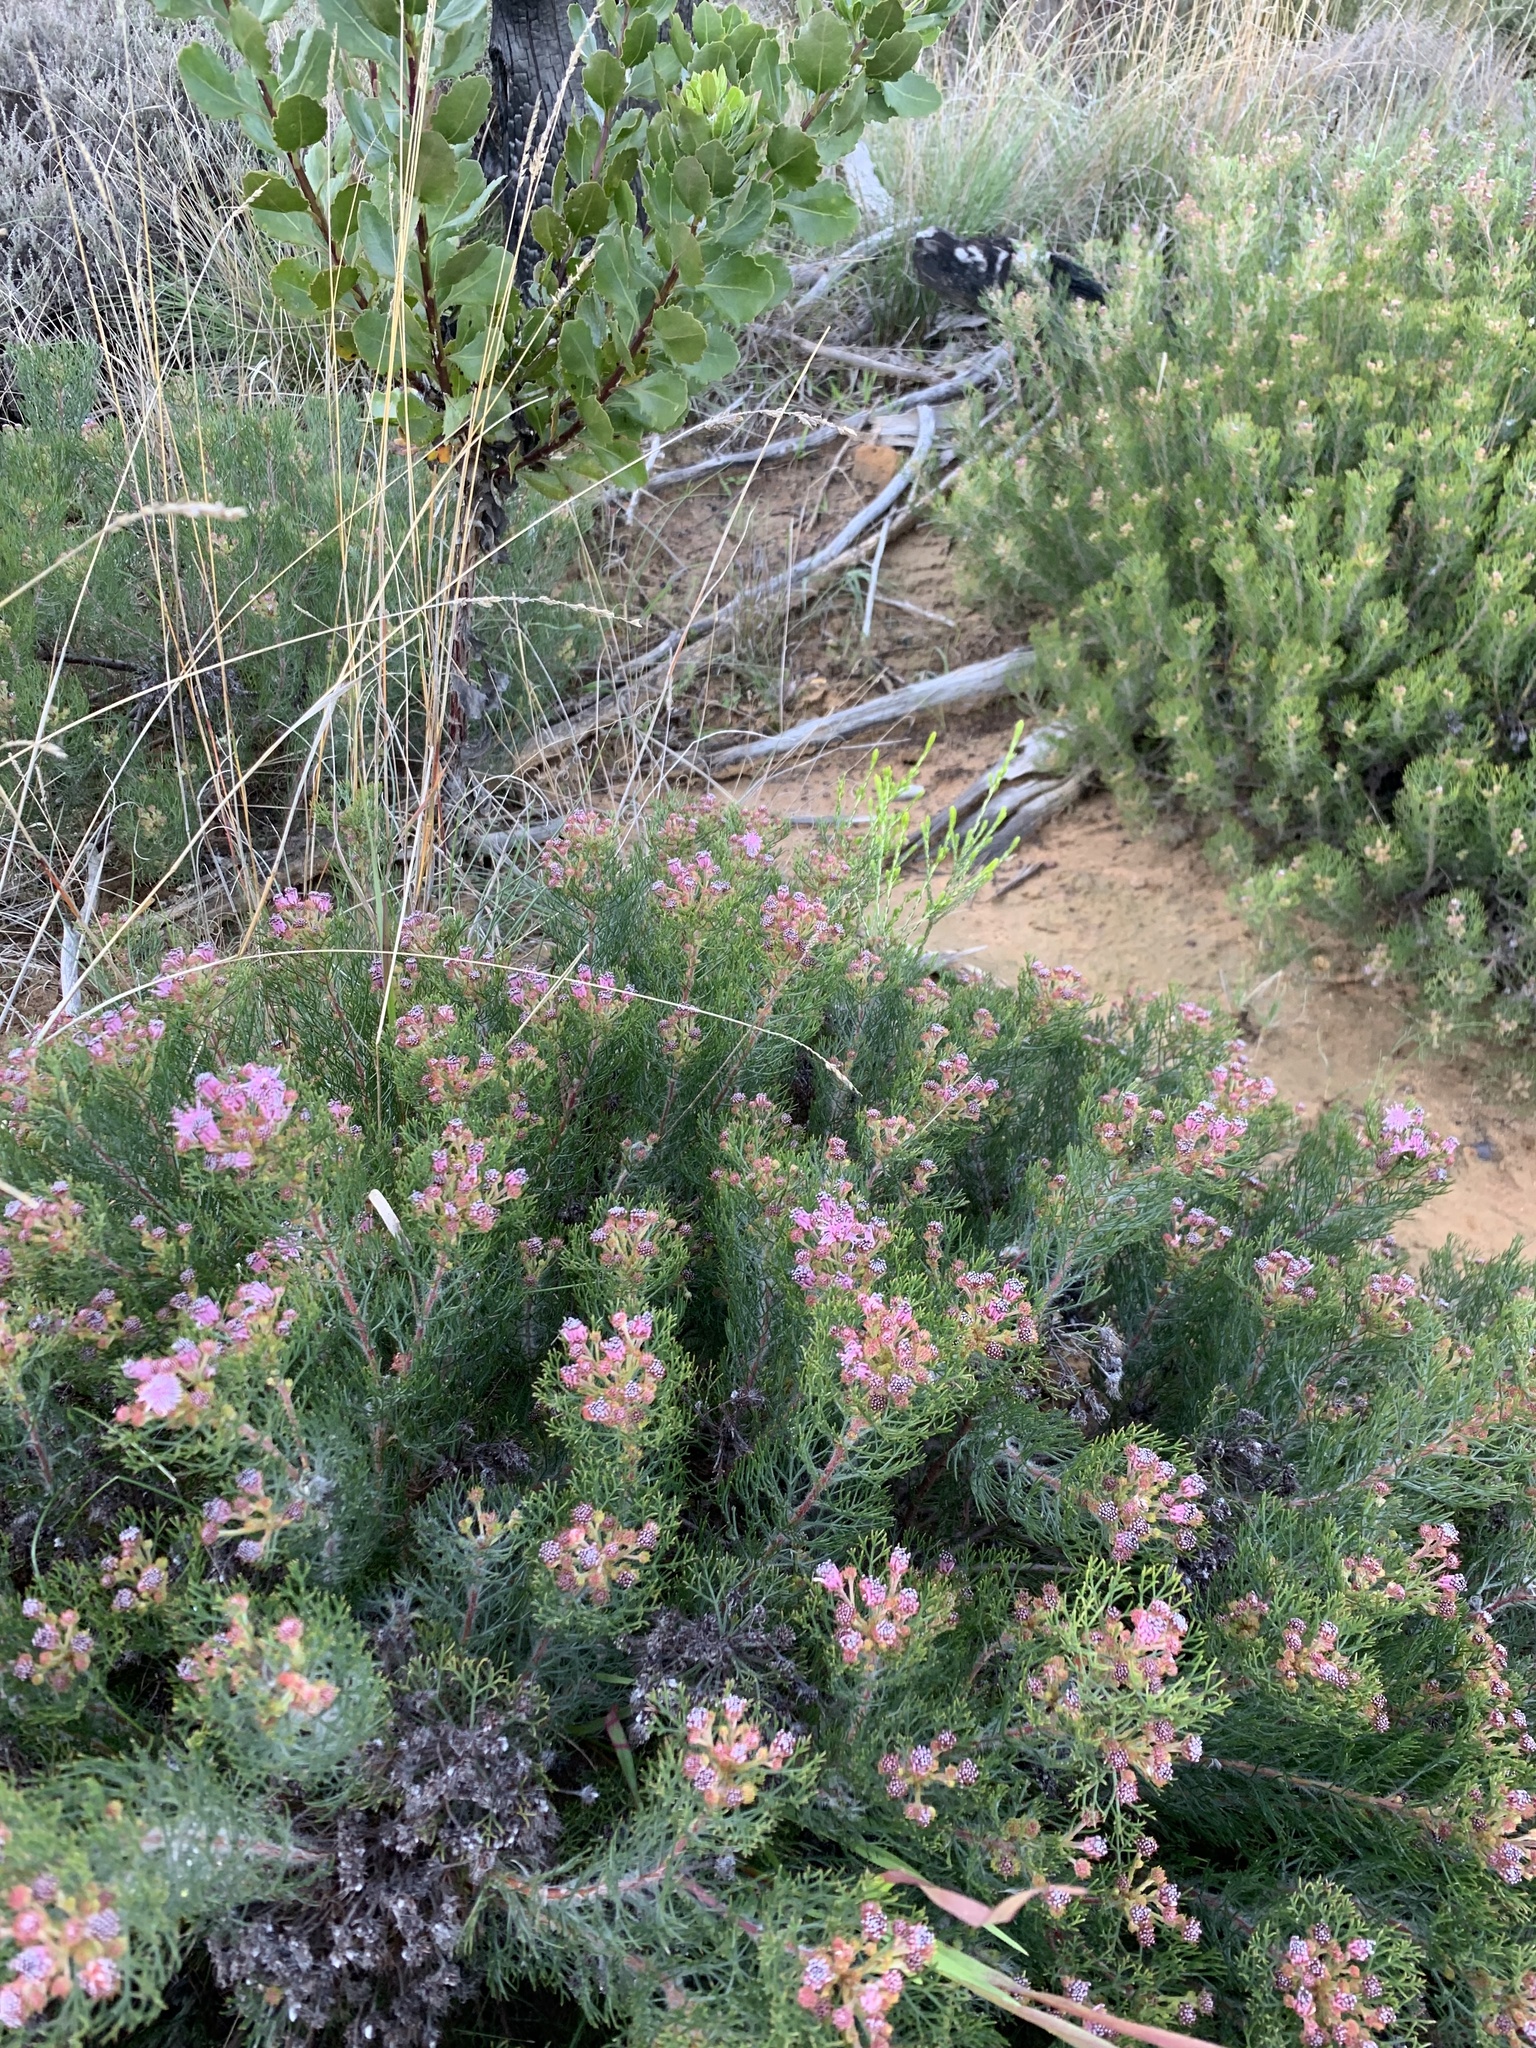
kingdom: Plantae
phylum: Tracheophyta
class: Magnoliopsida
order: Proteales
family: Proteaceae
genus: Serruria
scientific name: Serruria fasciflora
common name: Common pin spiderhead
